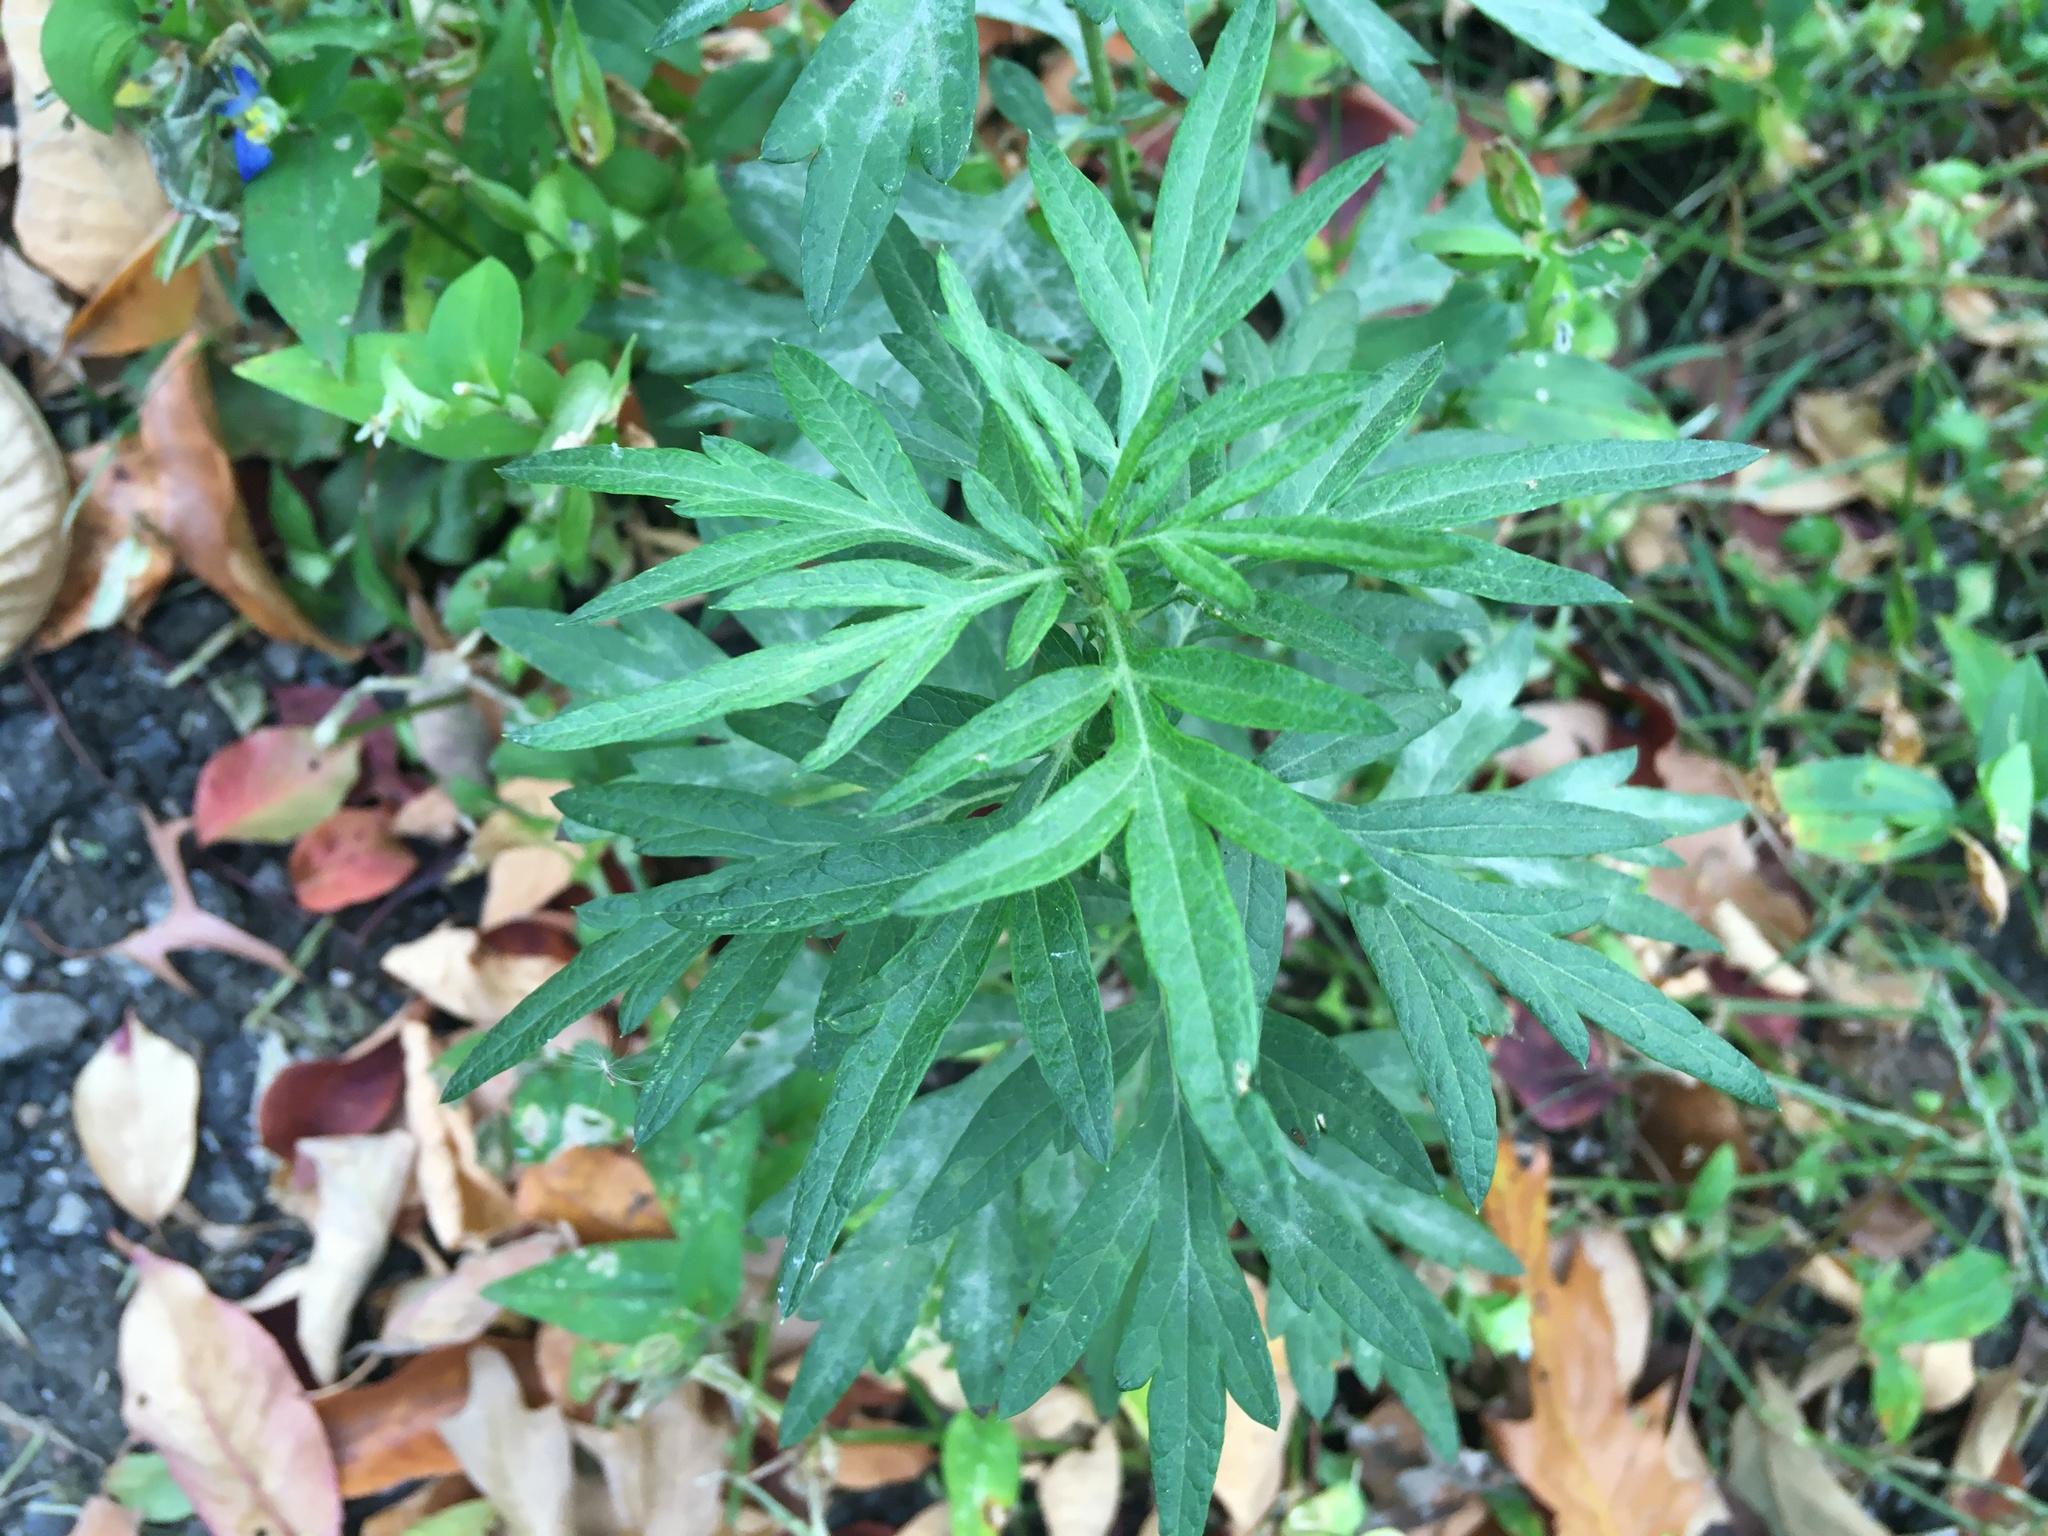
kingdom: Plantae
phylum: Tracheophyta
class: Magnoliopsida
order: Asterales
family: Asteraceae
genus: Artemisia
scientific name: Artemisia vulgaris
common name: Mugwort
